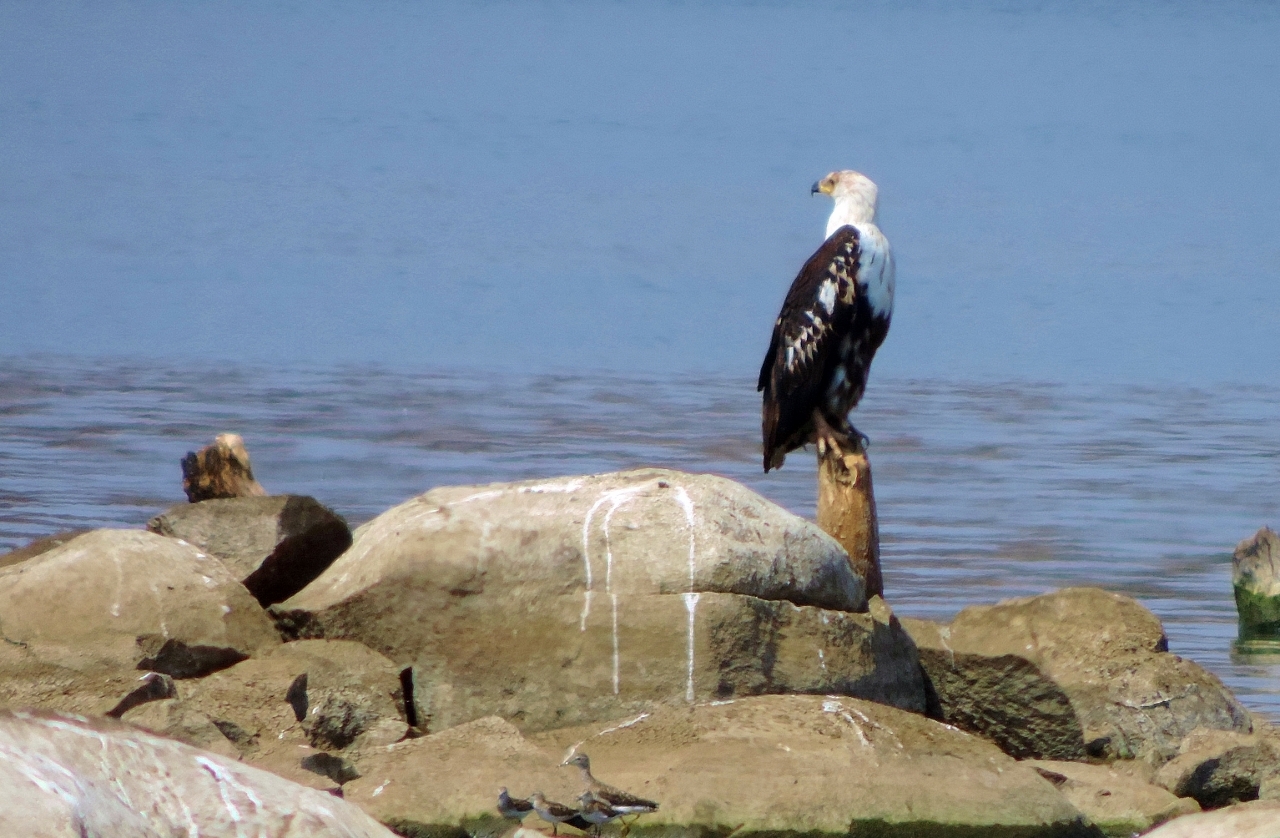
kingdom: Animalia
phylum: Chordata
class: Aves
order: Accipitriformes
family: Accipitridae
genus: Haliaeetus
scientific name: Haliaeetus vocifer
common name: African fish eagle
